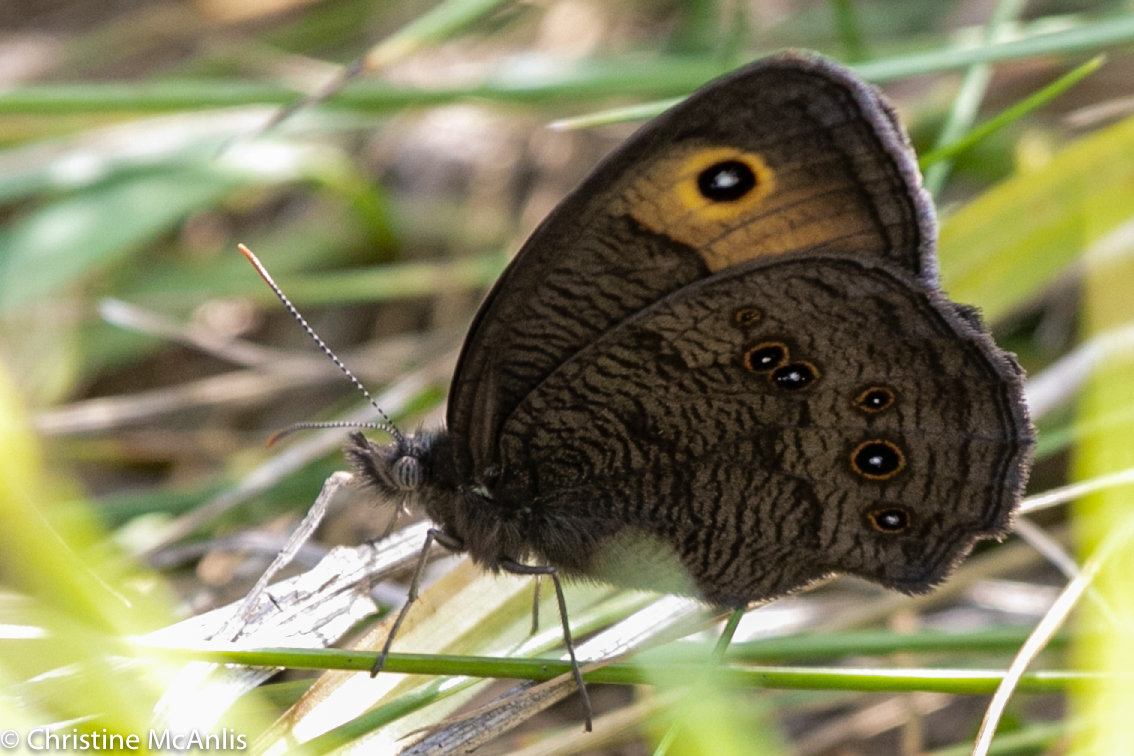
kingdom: Animalia
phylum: Arthropoda
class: Insecta
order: Lepidoptera
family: Nymphalidae
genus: Cercyonis
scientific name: Cercyonis pegala
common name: Common wood-nymph
